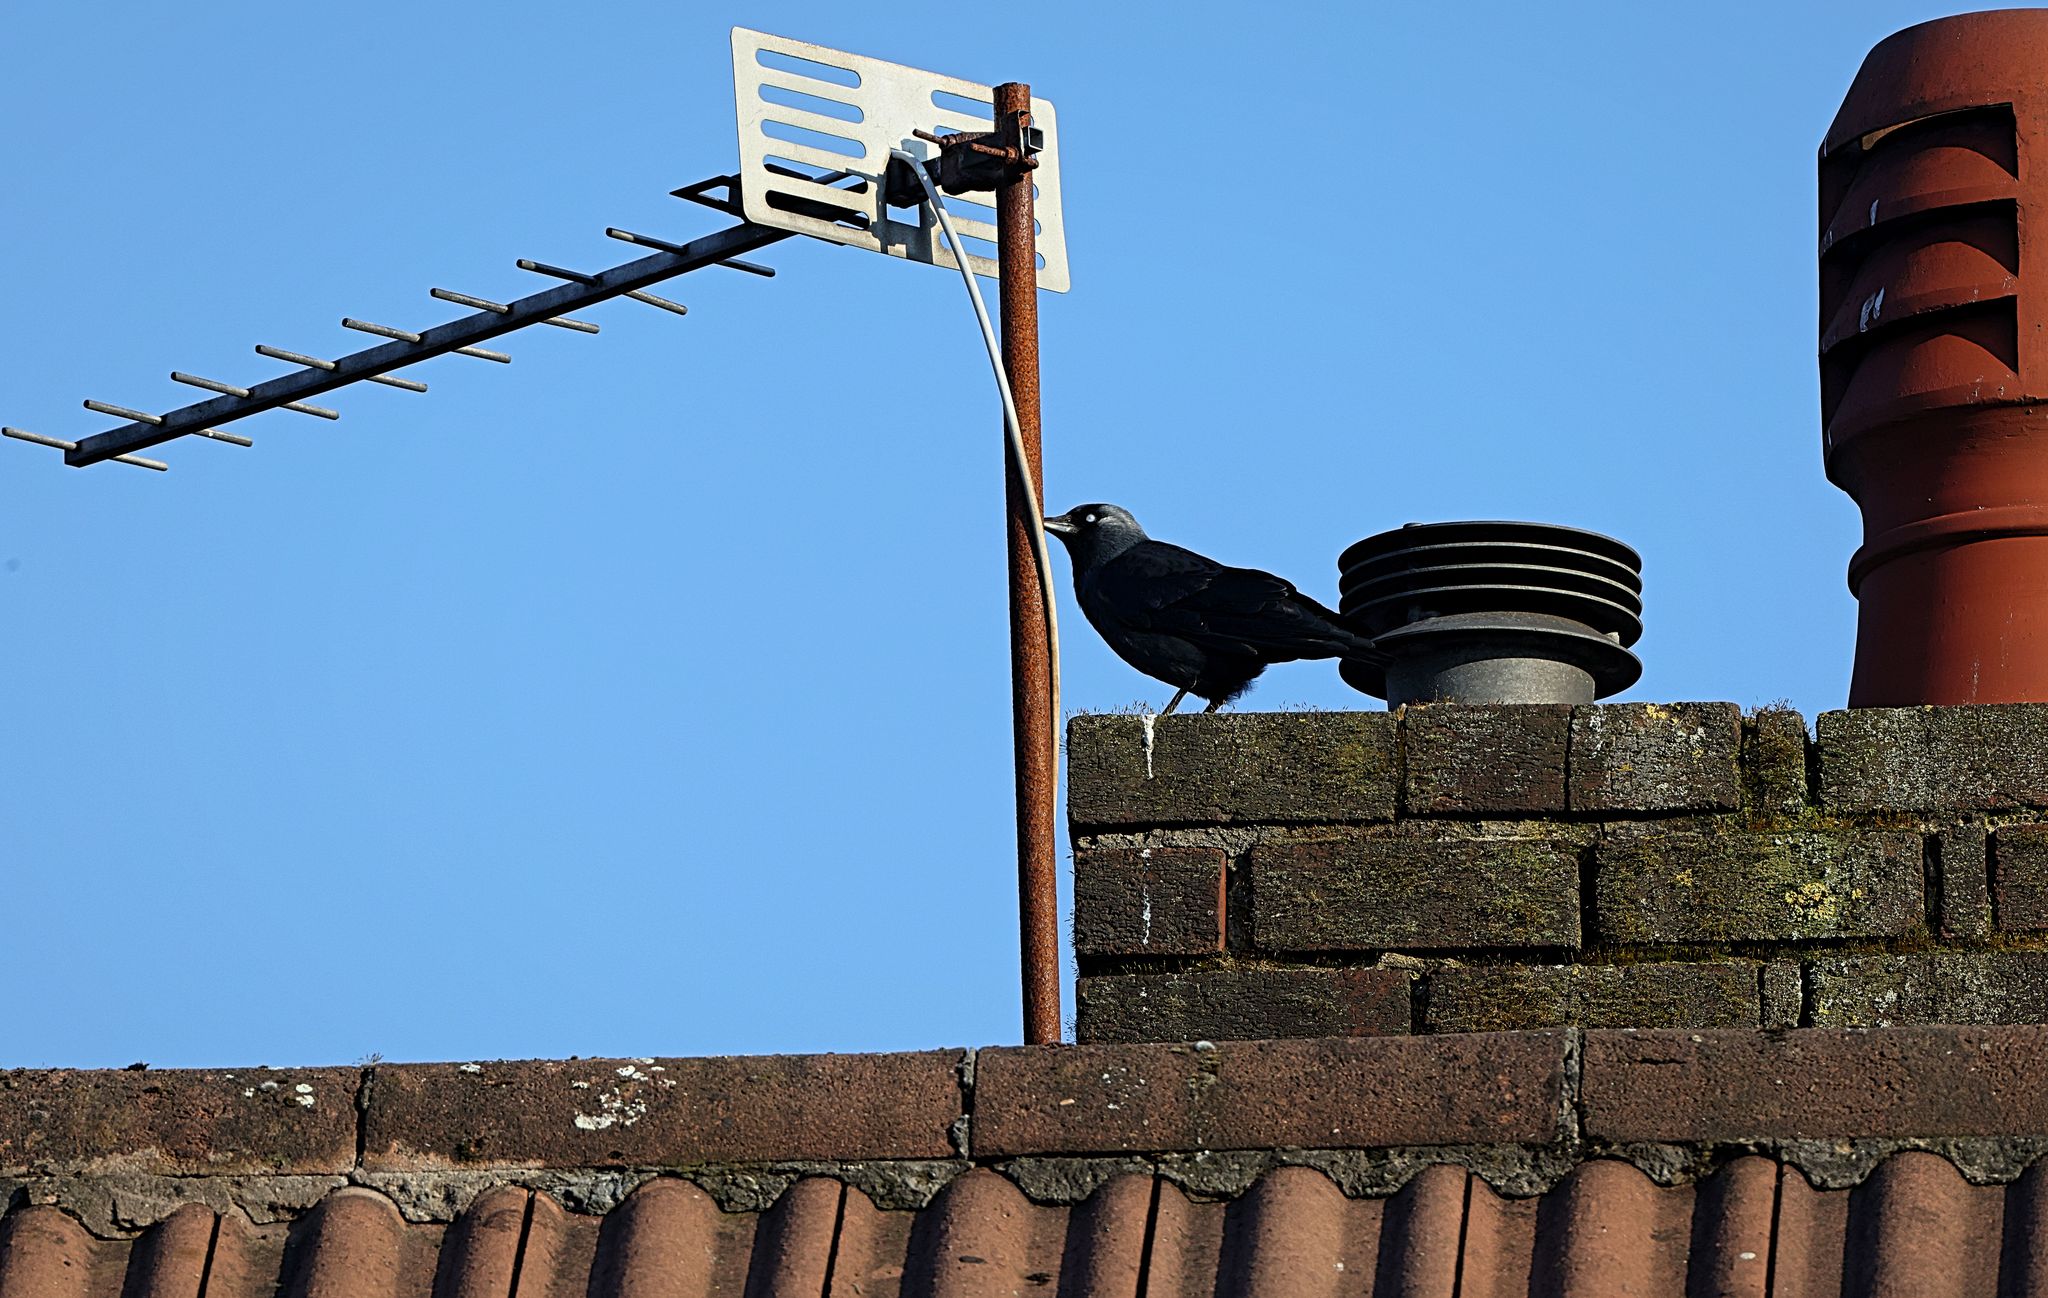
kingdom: Animalia
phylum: Chordata
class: Aves
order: Passeriformes
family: Corvidae
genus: Coloeus
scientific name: Coloeus monedula
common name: Western jackdaw
